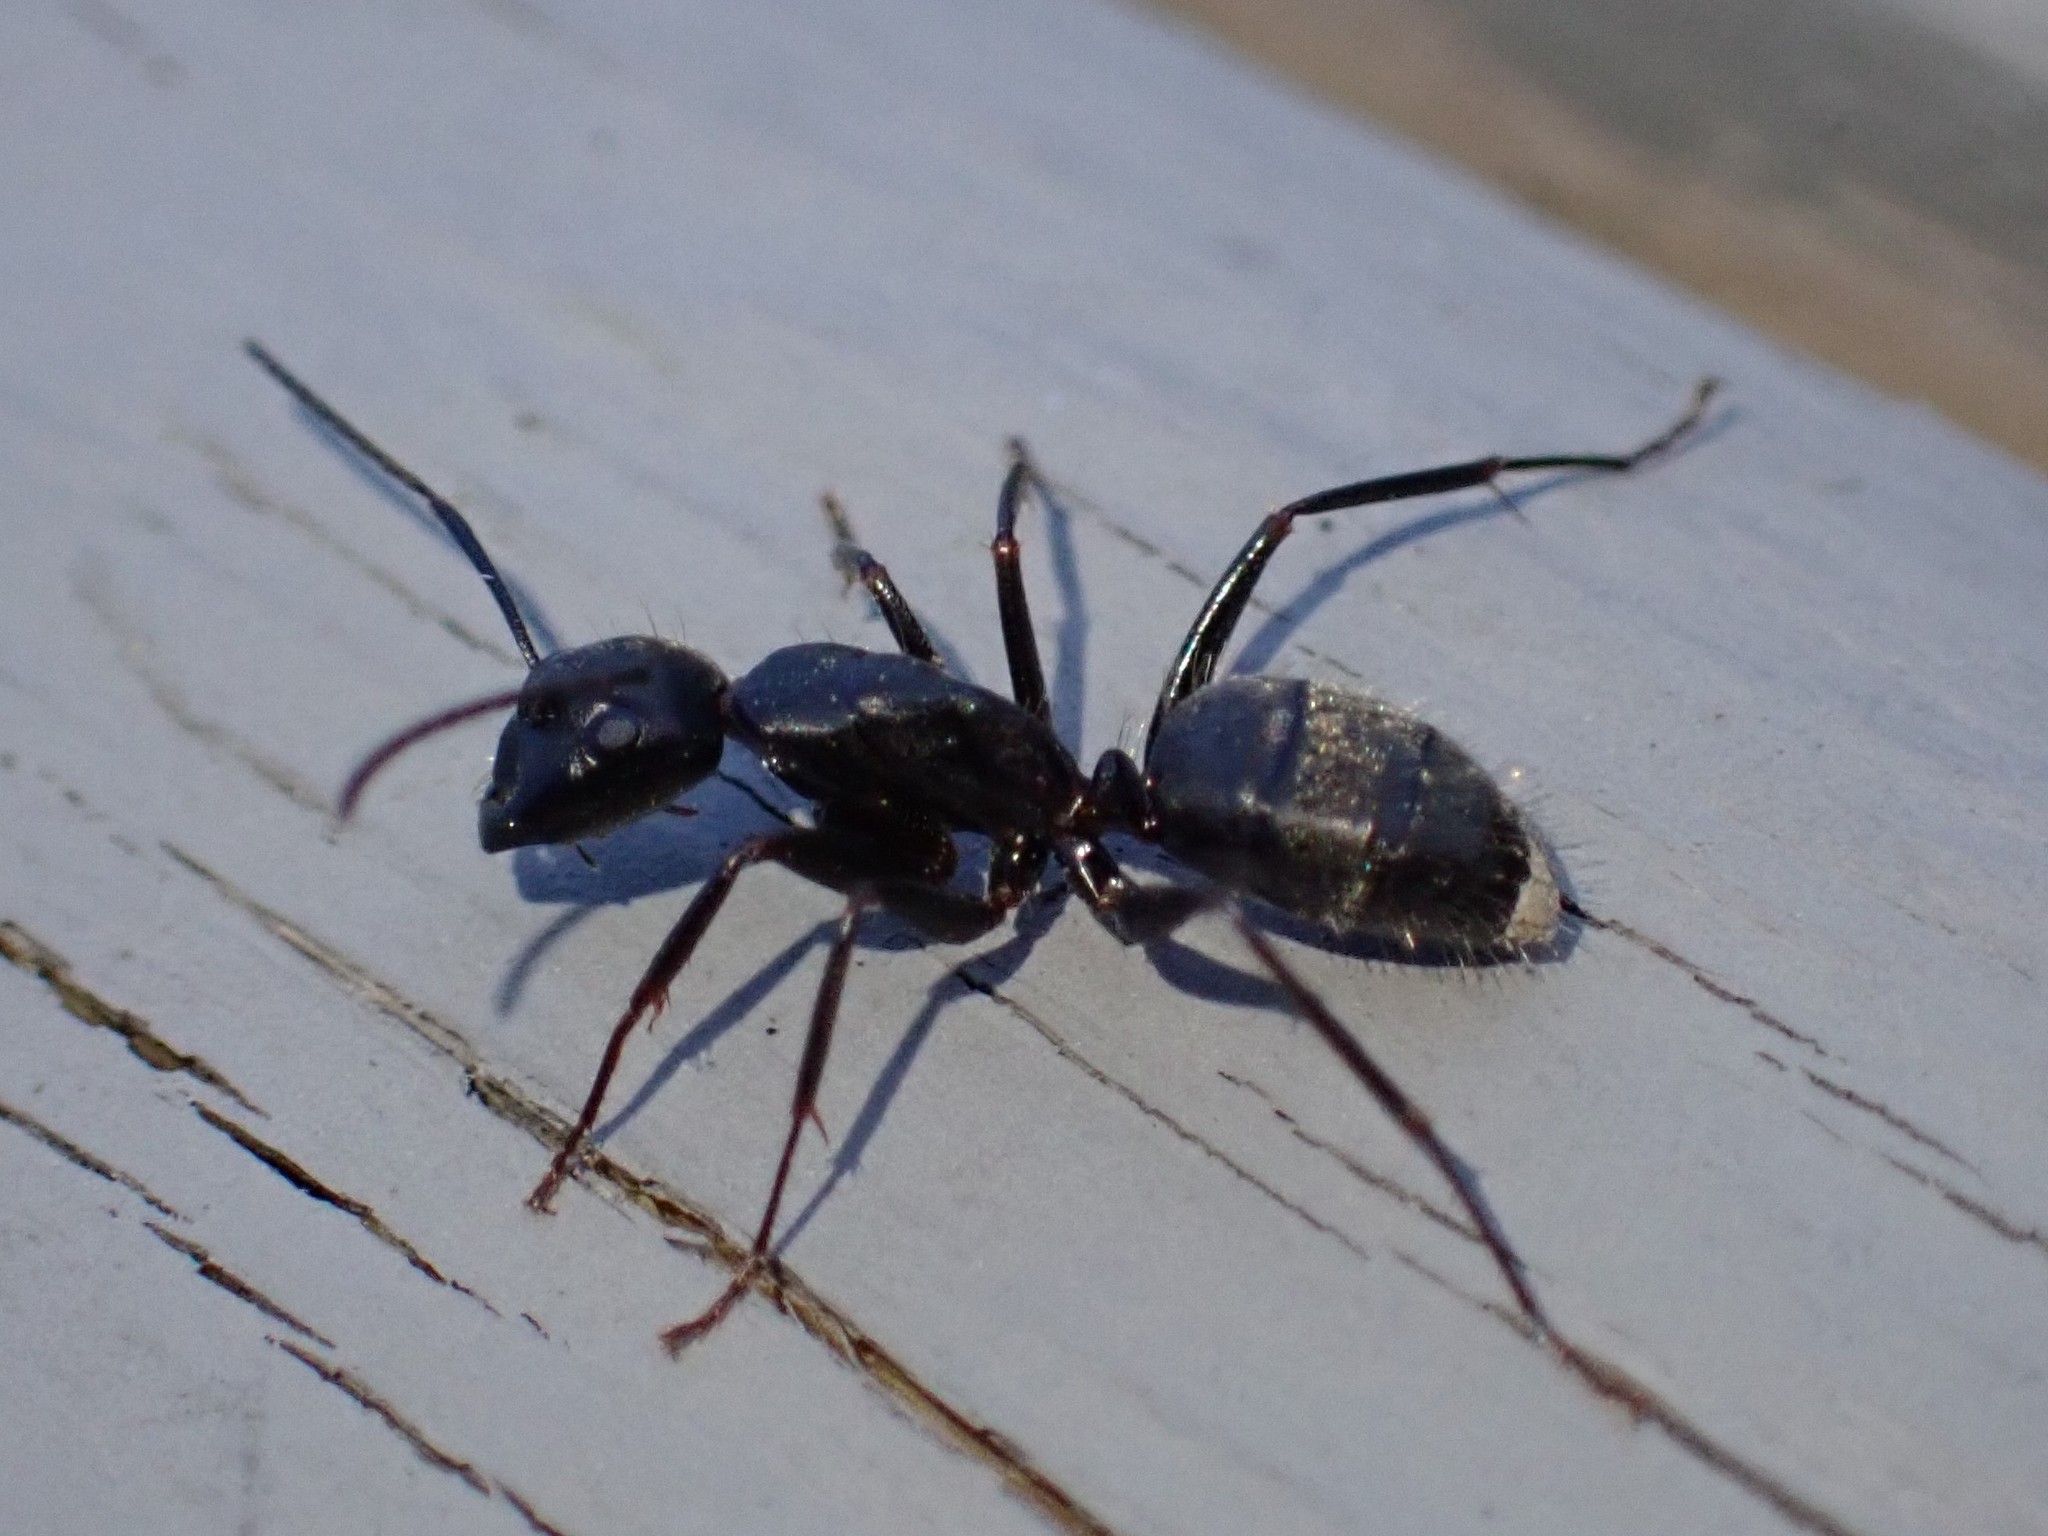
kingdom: Animalia
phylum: Arthropoda
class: Insecta
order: Hymenoptera
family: Formicidae
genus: Camponotus
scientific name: Camponotus pennsylvanicus
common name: Black carpenter ant
